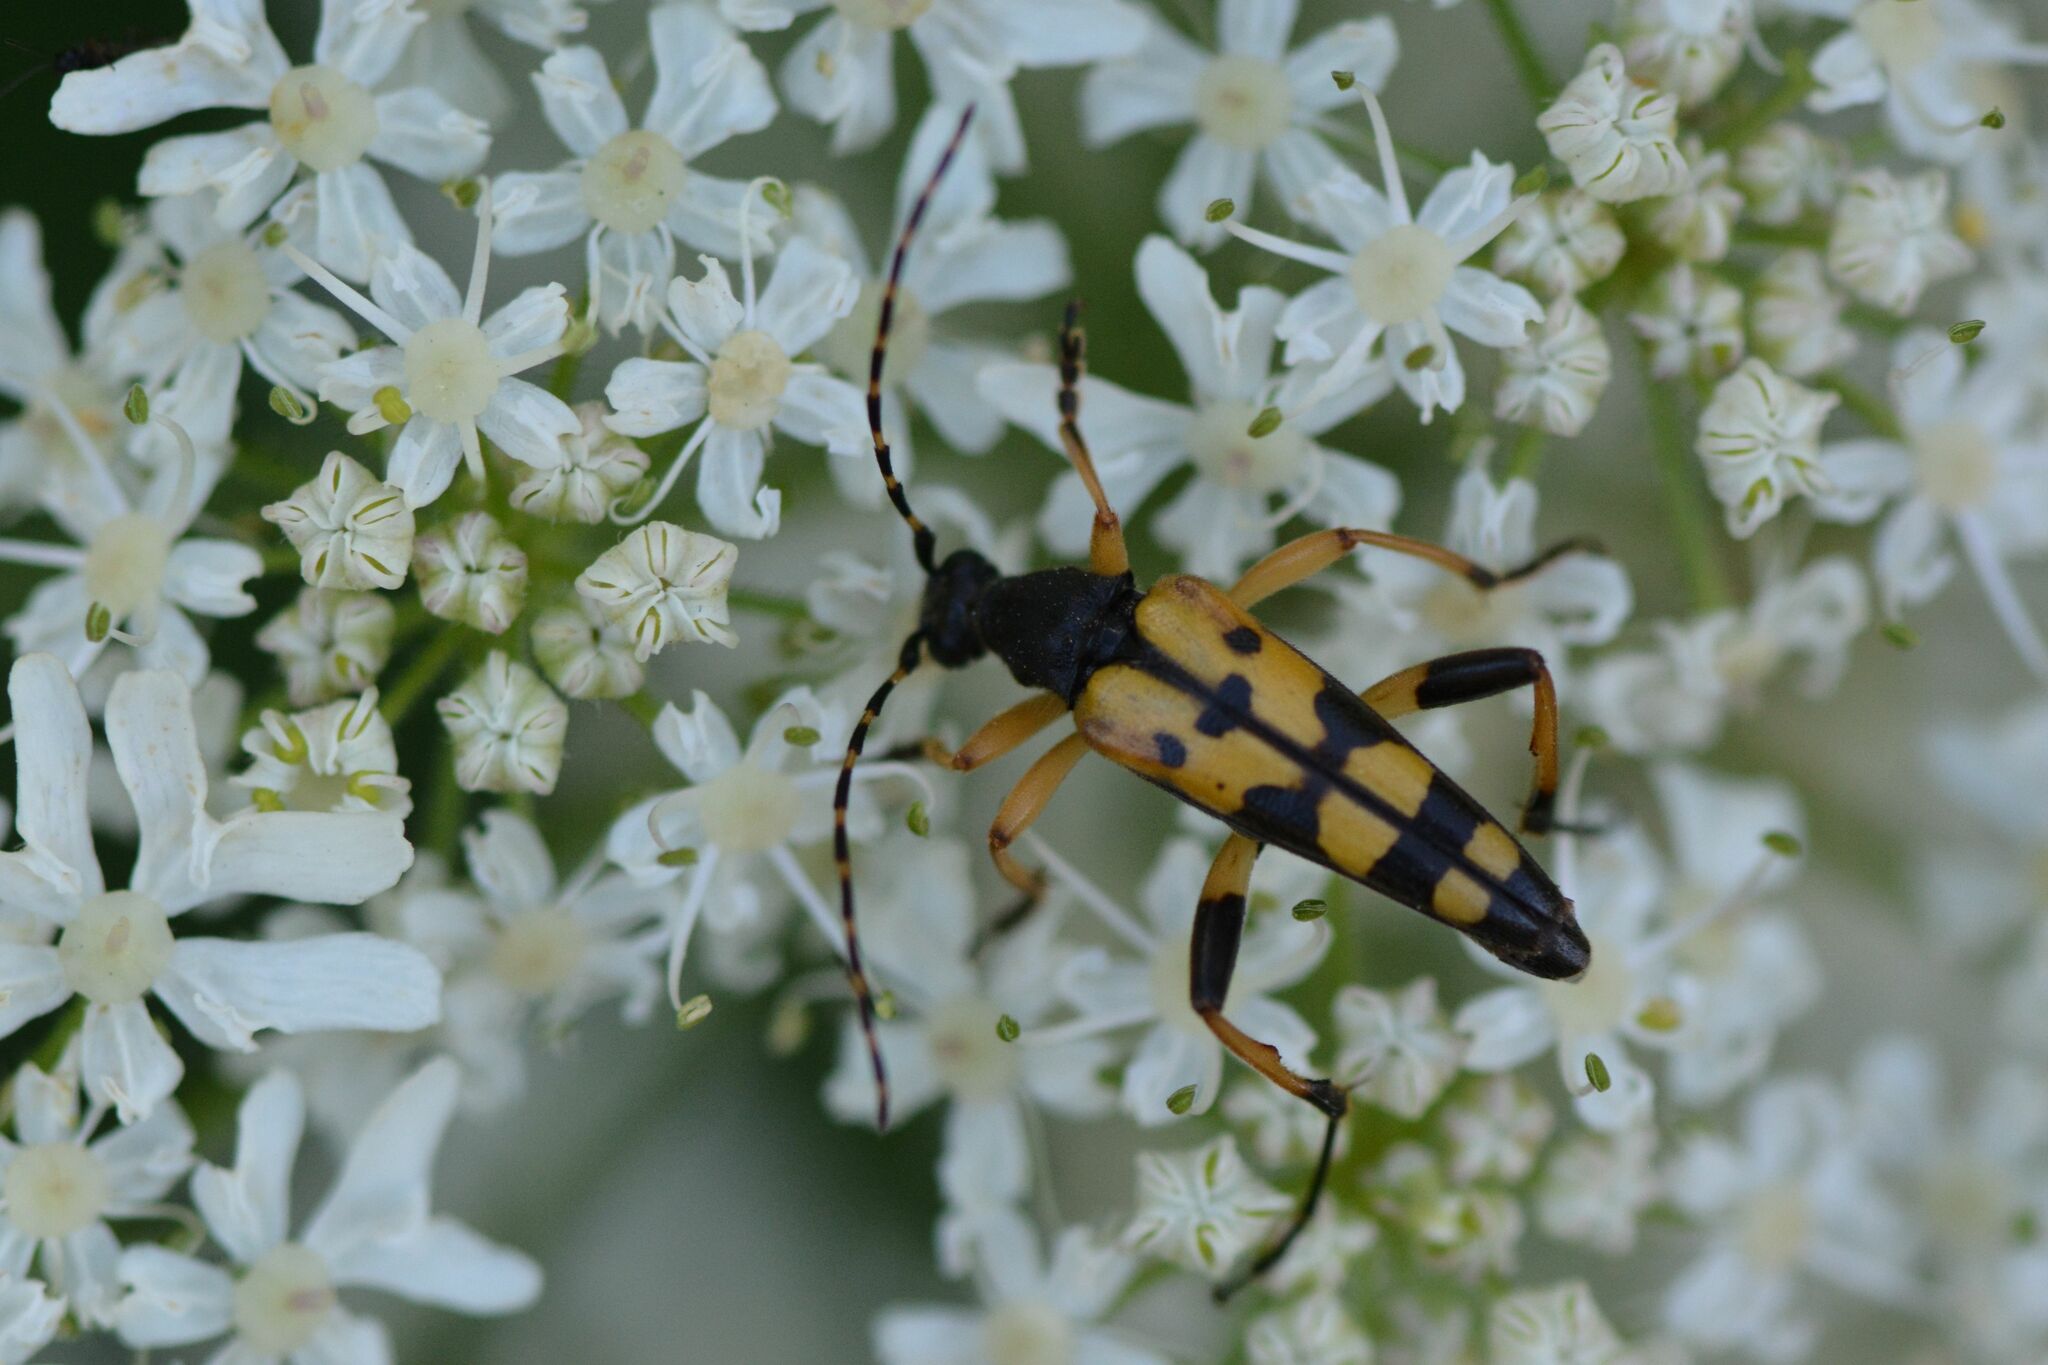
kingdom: Animalia
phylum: Arthropoda
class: Insecta
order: Coleoptera
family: Cerambycidae
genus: Rutpela
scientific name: Rutpela maculata
